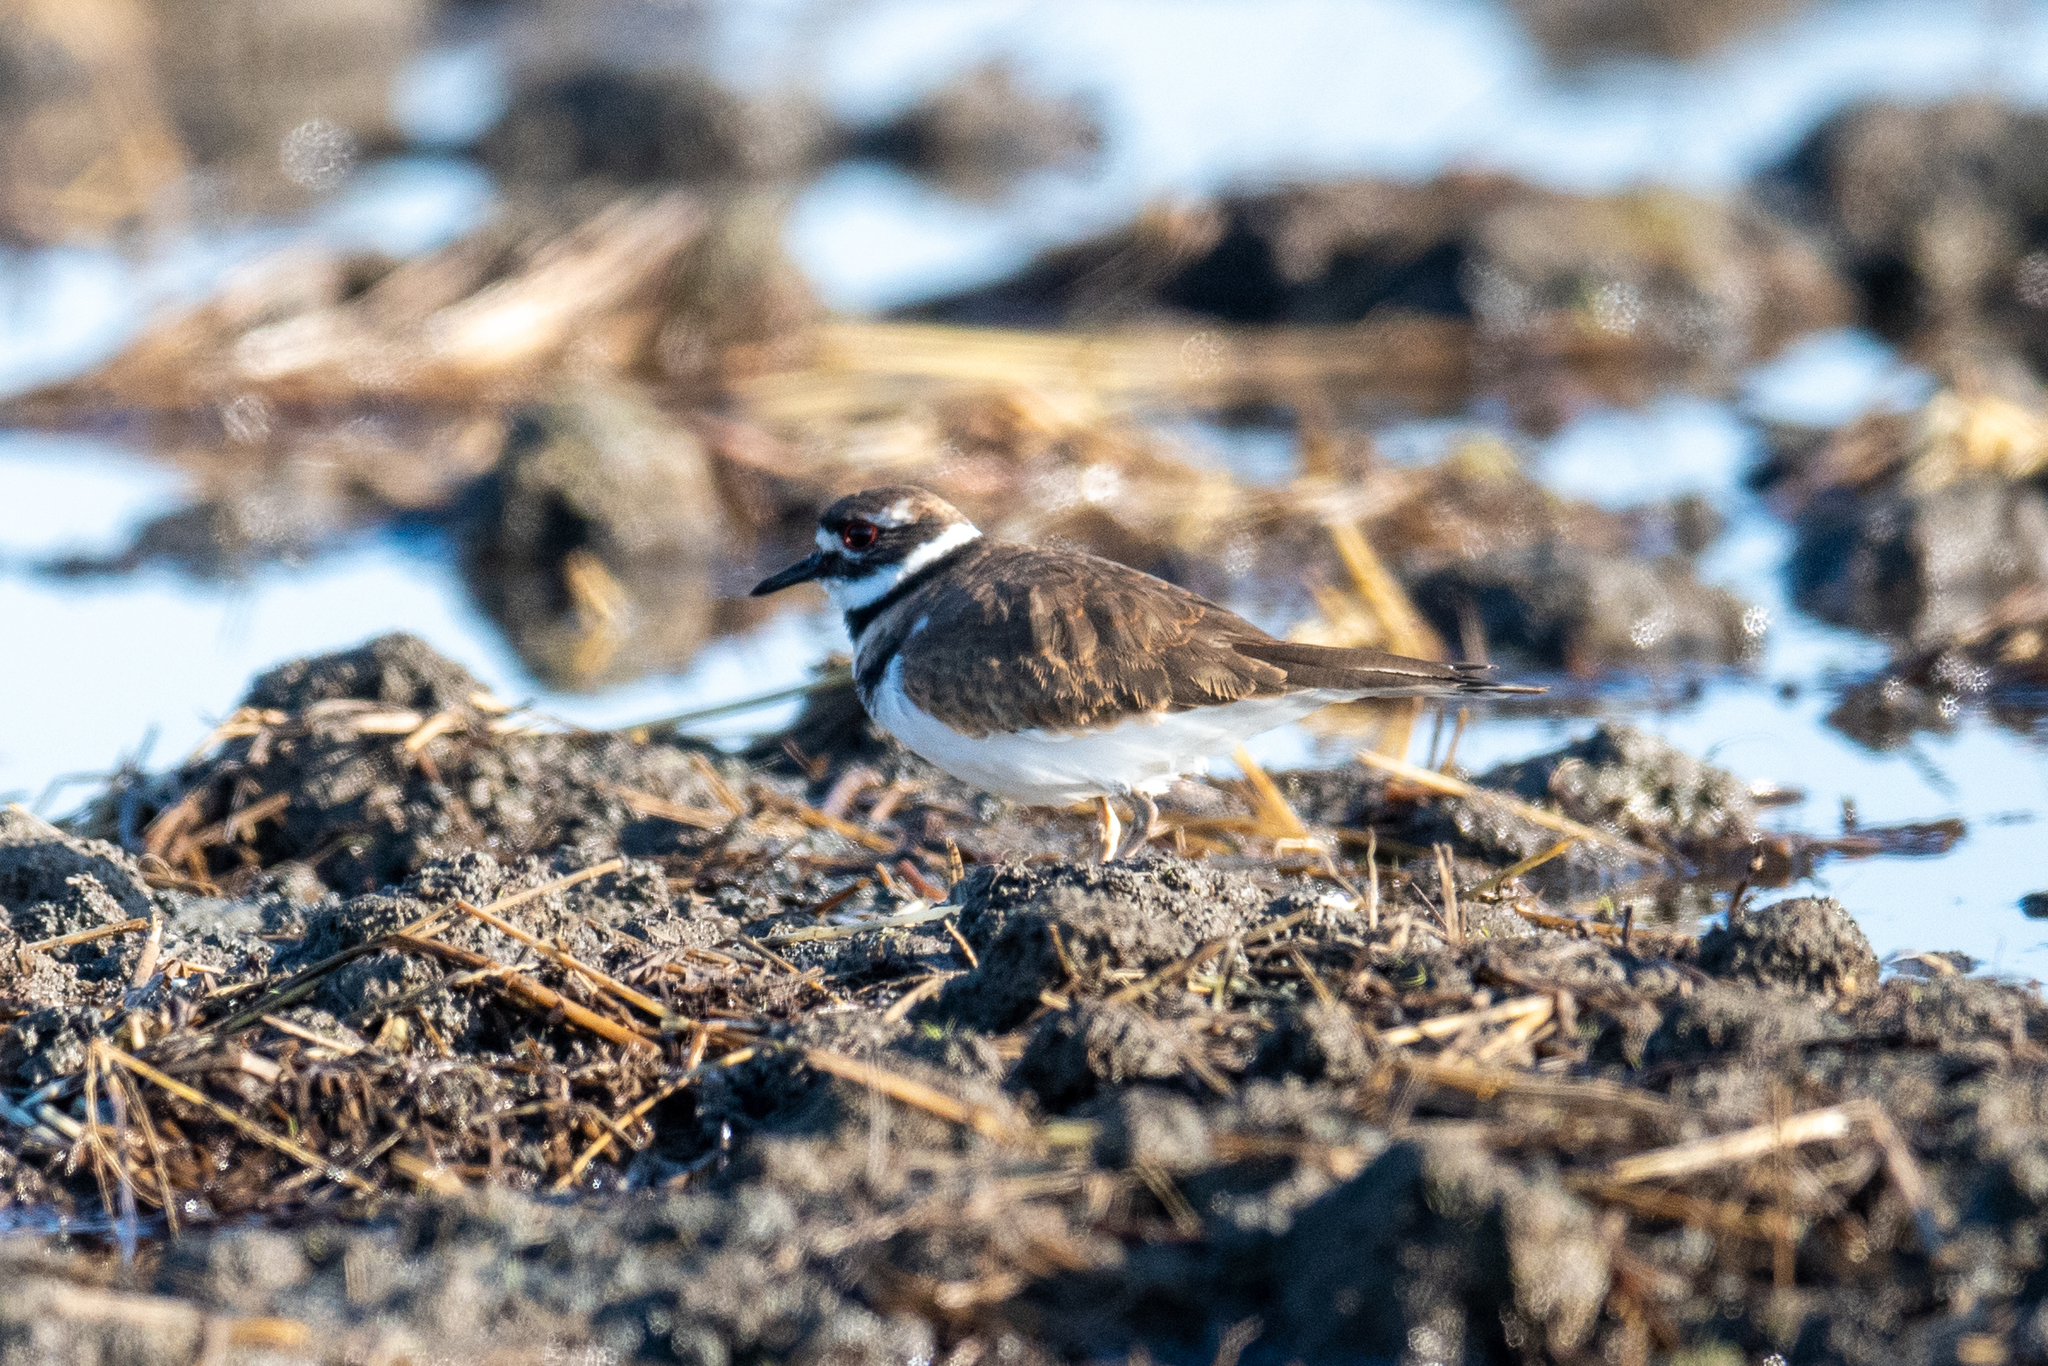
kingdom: Animalia
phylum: Chordata
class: Aves
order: Charadriiformes
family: Charadriidae
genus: Charadrius
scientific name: Charadrius vociferus
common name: Killdeer
